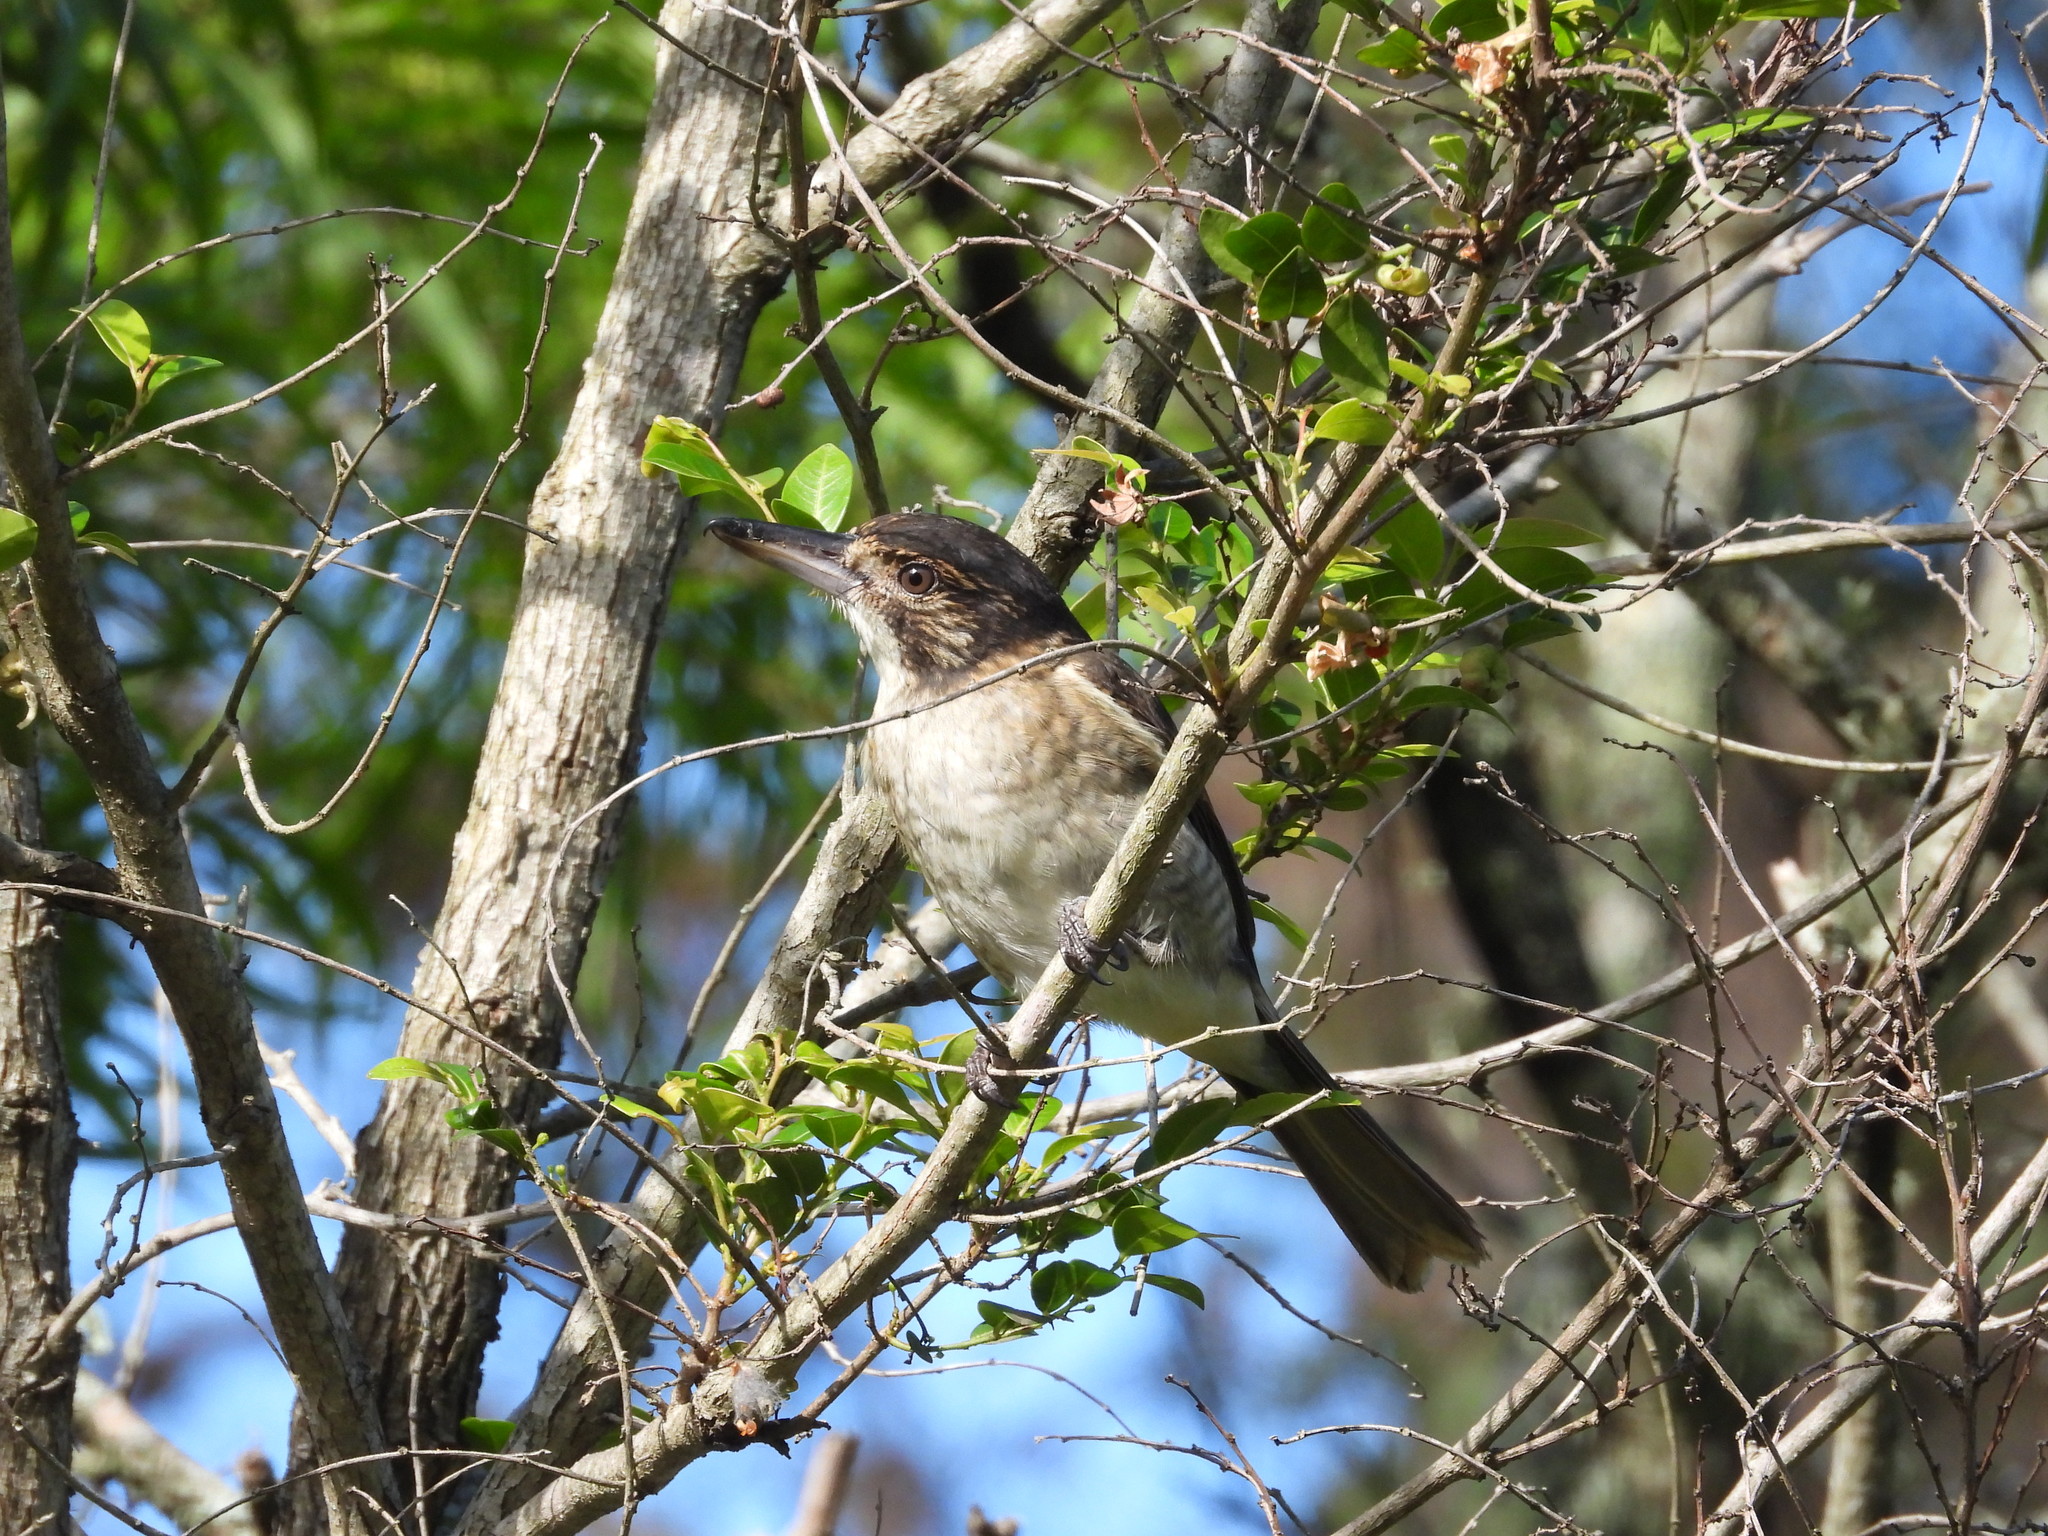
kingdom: Animalia
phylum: Chordata
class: Aves
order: Passeriformes
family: Cracticidae
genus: Cracticus
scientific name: Cracticus torquatus
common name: Grey butcherbird
